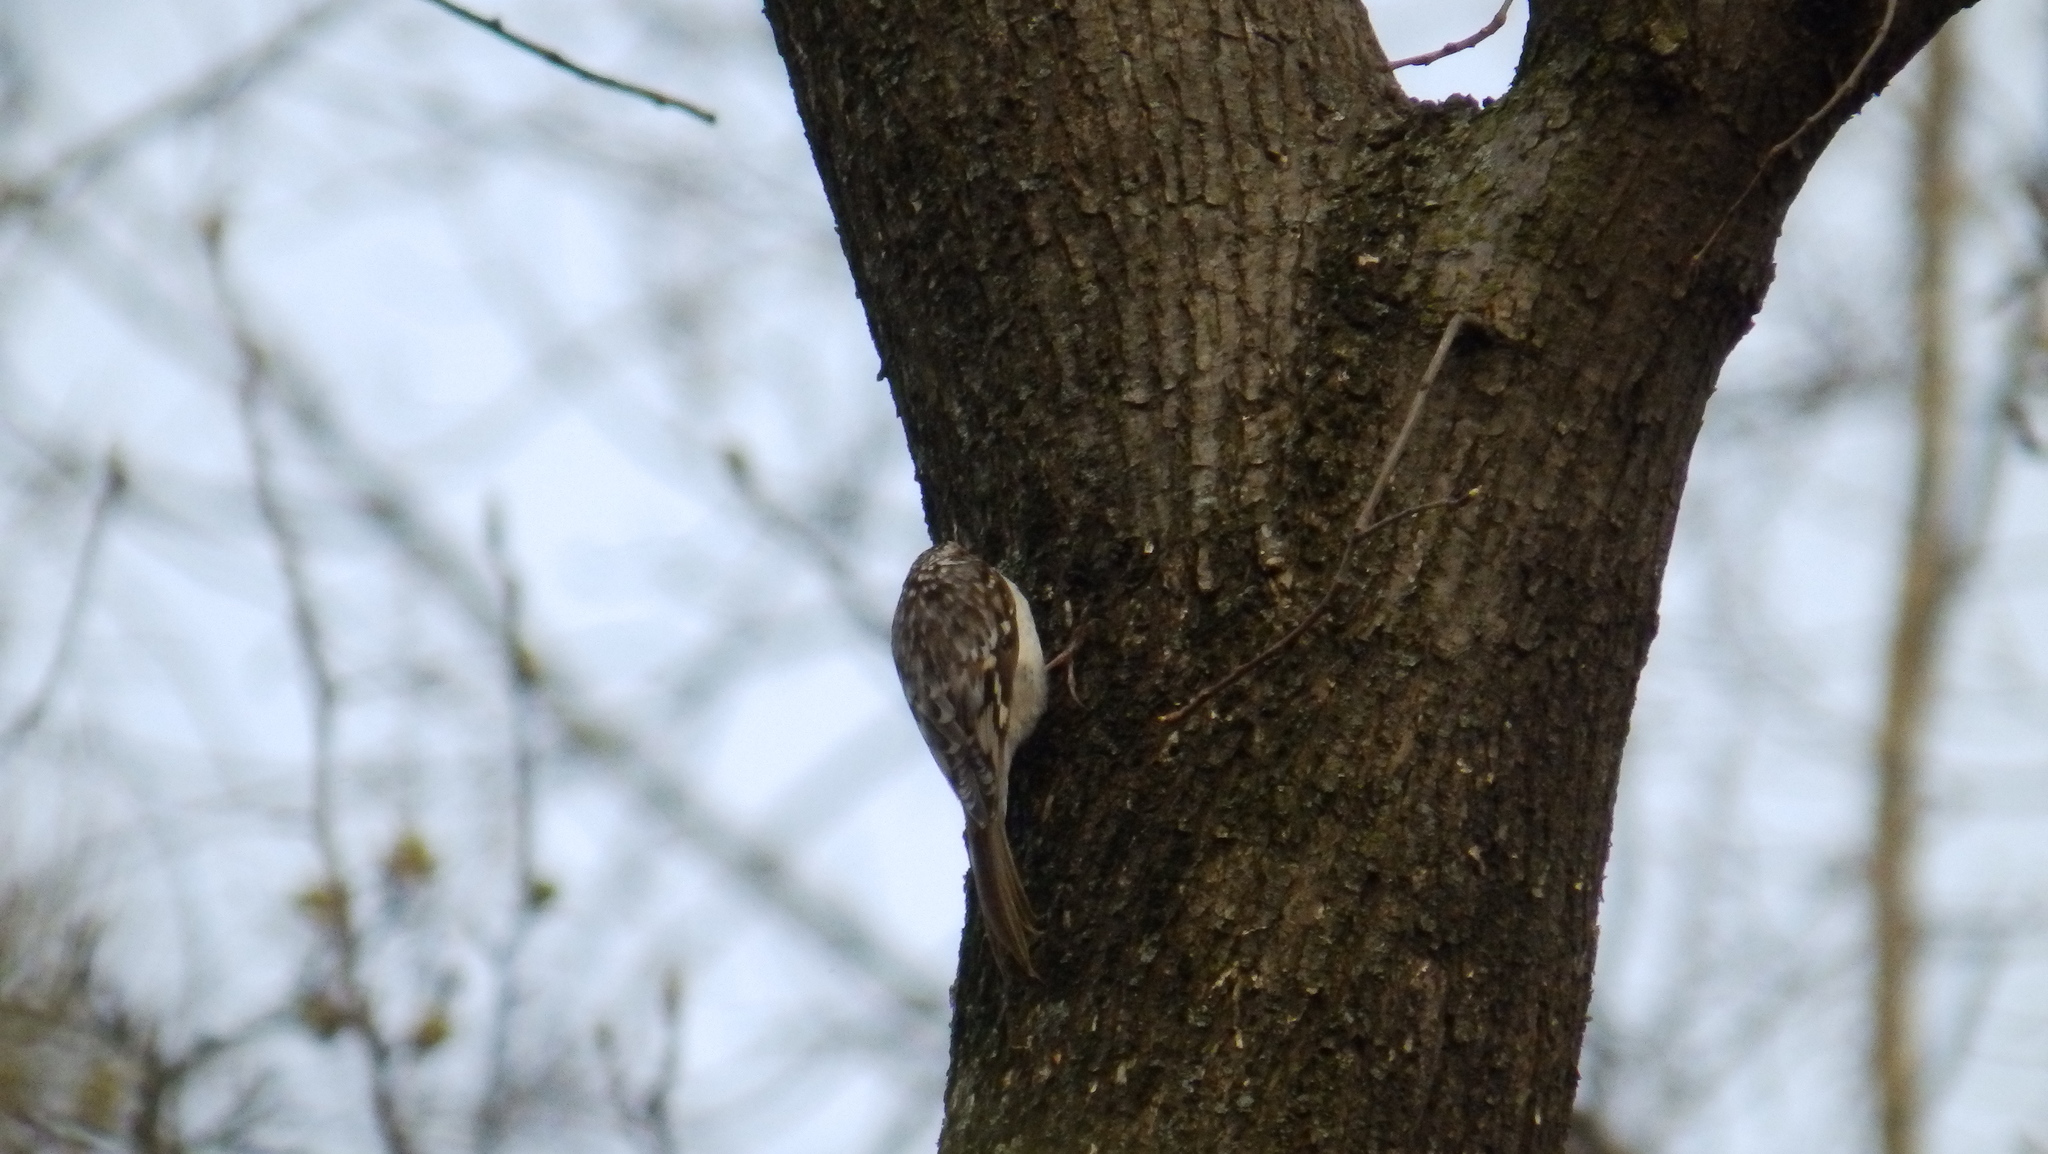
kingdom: Animalia
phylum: Chordata
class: Aves
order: Passeriformes
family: Certhiidae
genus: Certhia
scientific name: Certhia americana
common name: Brown creeper
